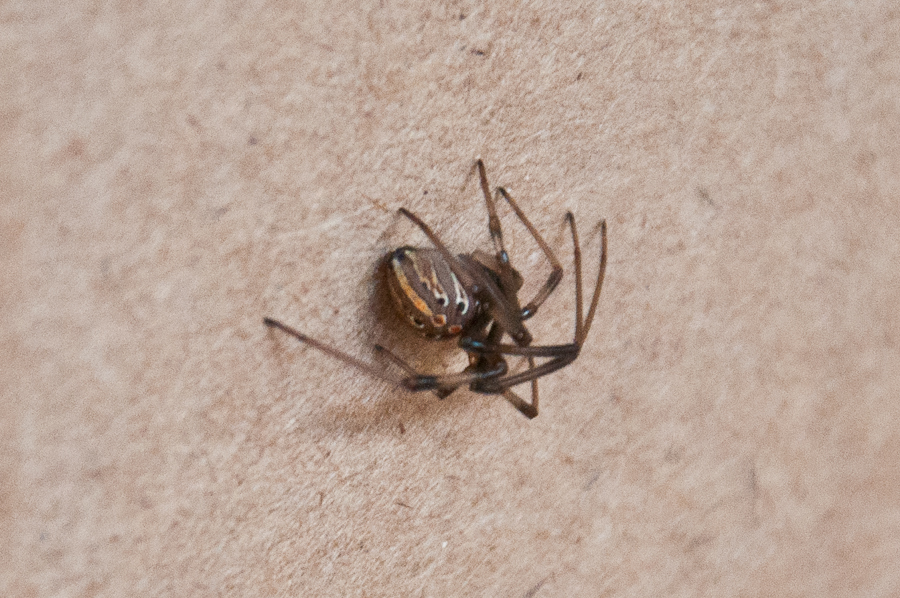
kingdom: Animalia
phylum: Arthropoda
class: Arachnida
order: Araneae
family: Theridiidae
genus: Latrodectus
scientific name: Latrodectus geometricus
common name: Brown widow spider
